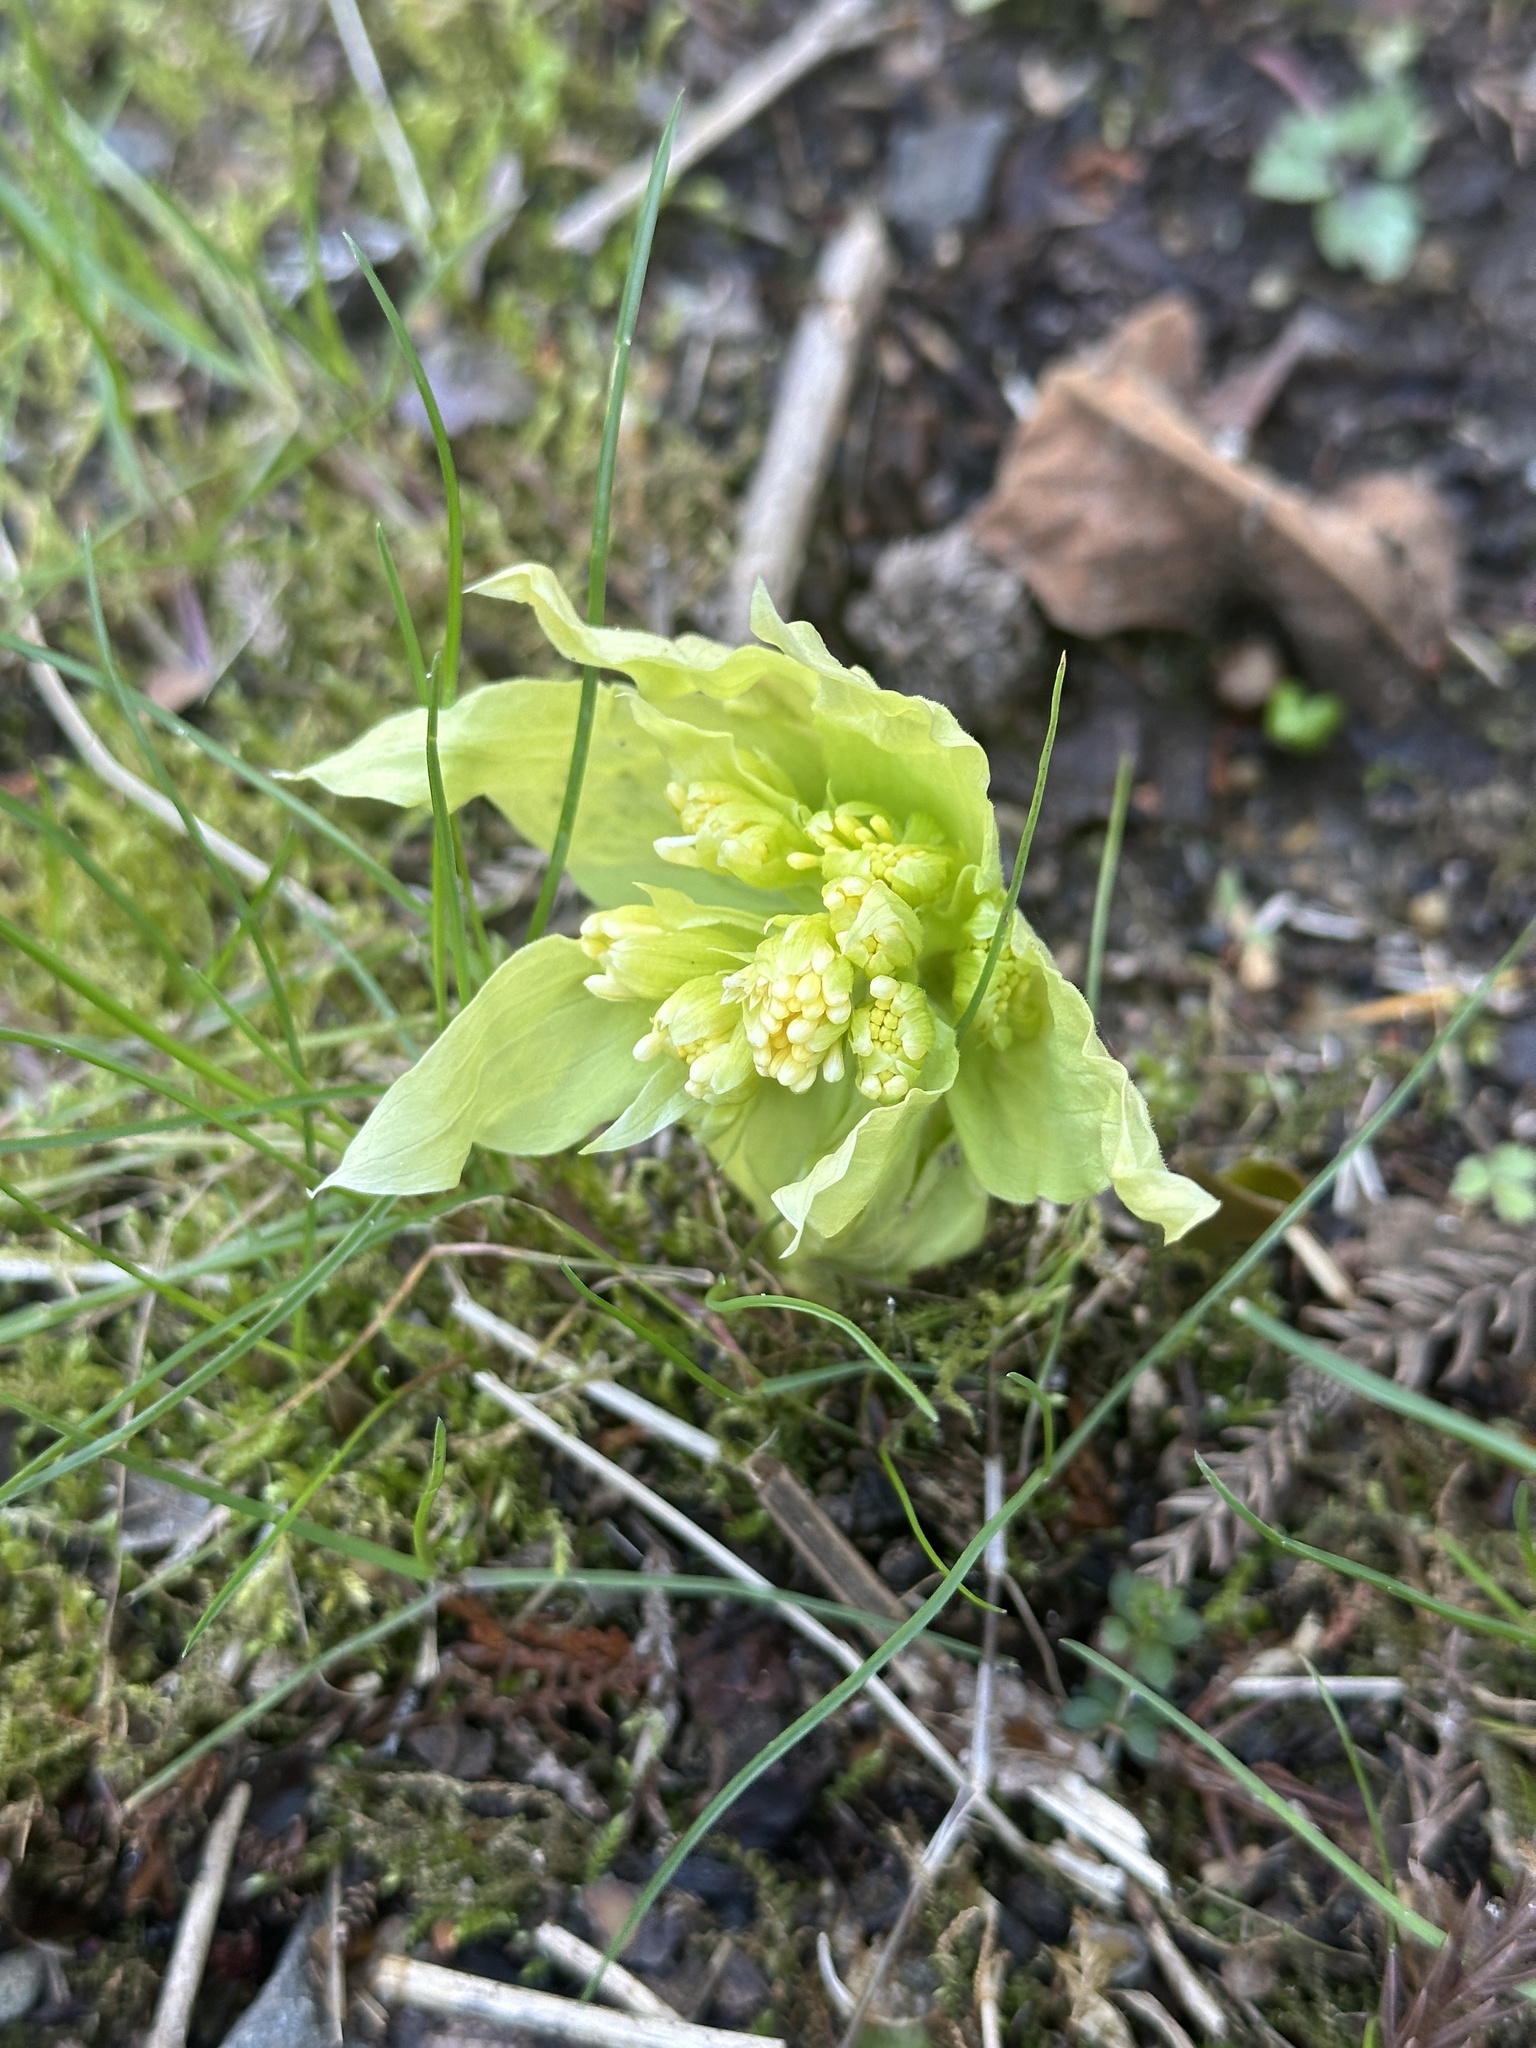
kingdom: Plantae
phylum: Tracheophyta
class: Magnoliopsida
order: Asterales
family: Asteraceae
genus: Petasites
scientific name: Petasites japonicus
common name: Giant butterbur
